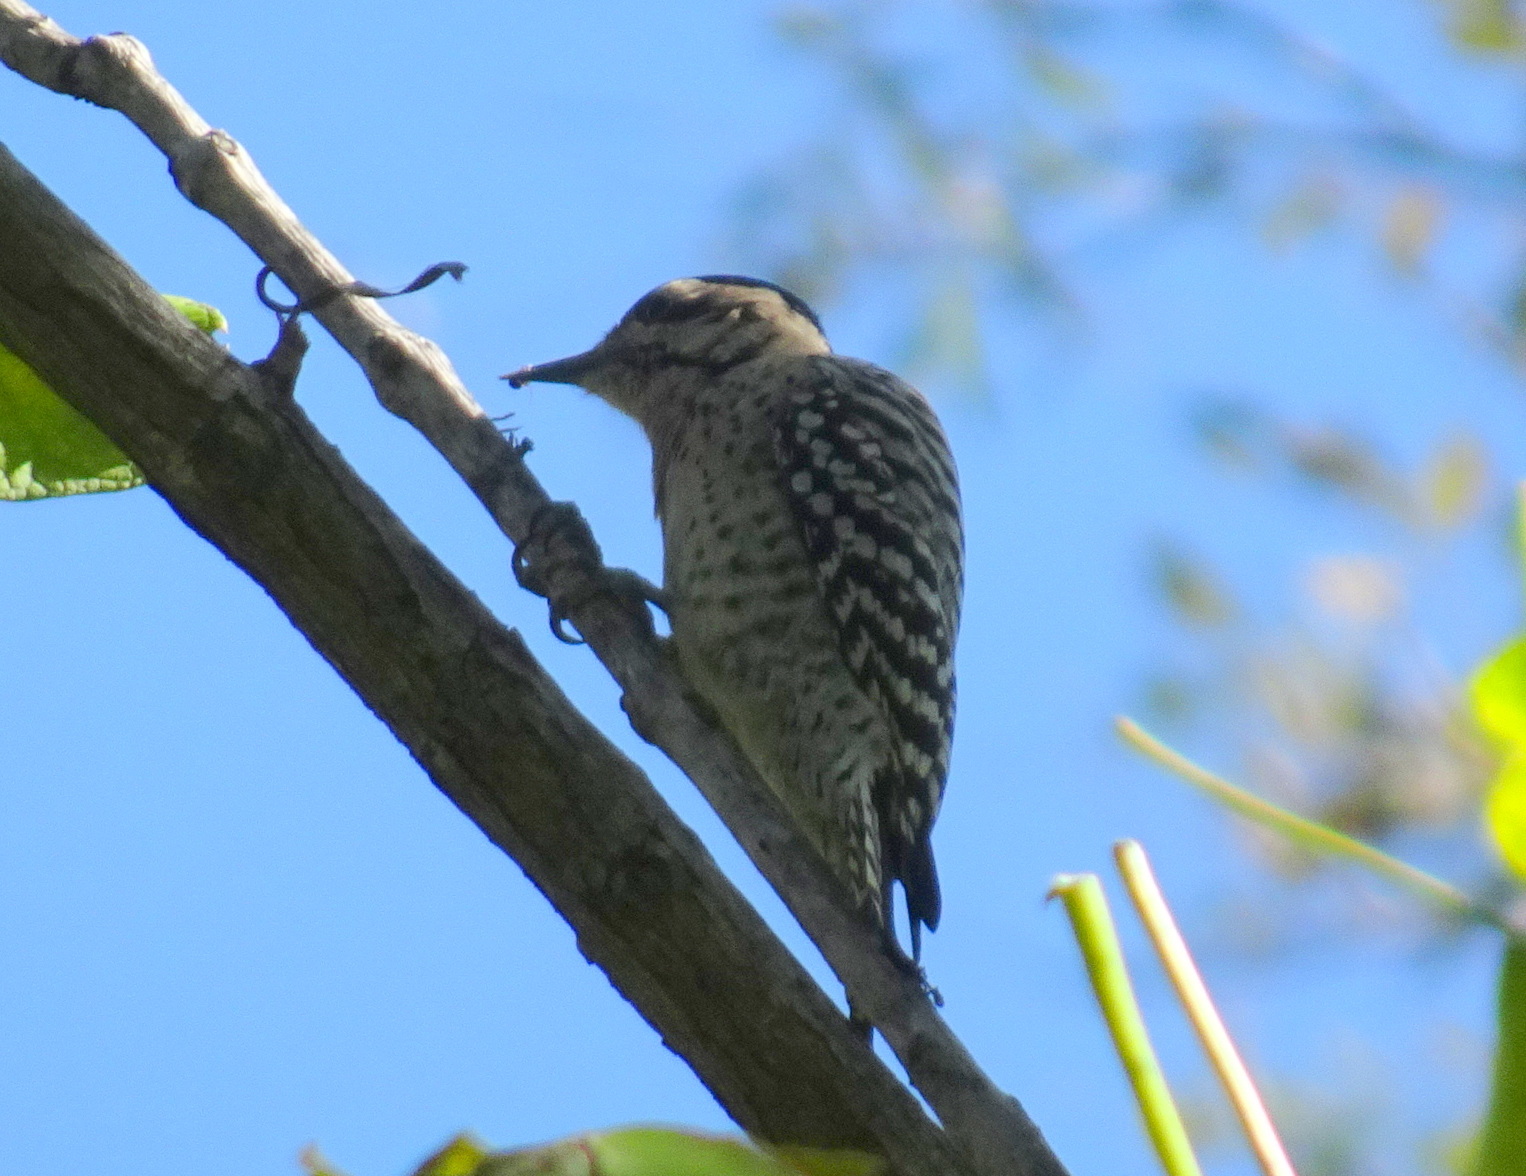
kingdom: Animalia
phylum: Chordata
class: Aves
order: Piciformes
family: Picidae
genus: Dryobates
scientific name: Dryobates scalaris
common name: Ladder-backed woodpecker
